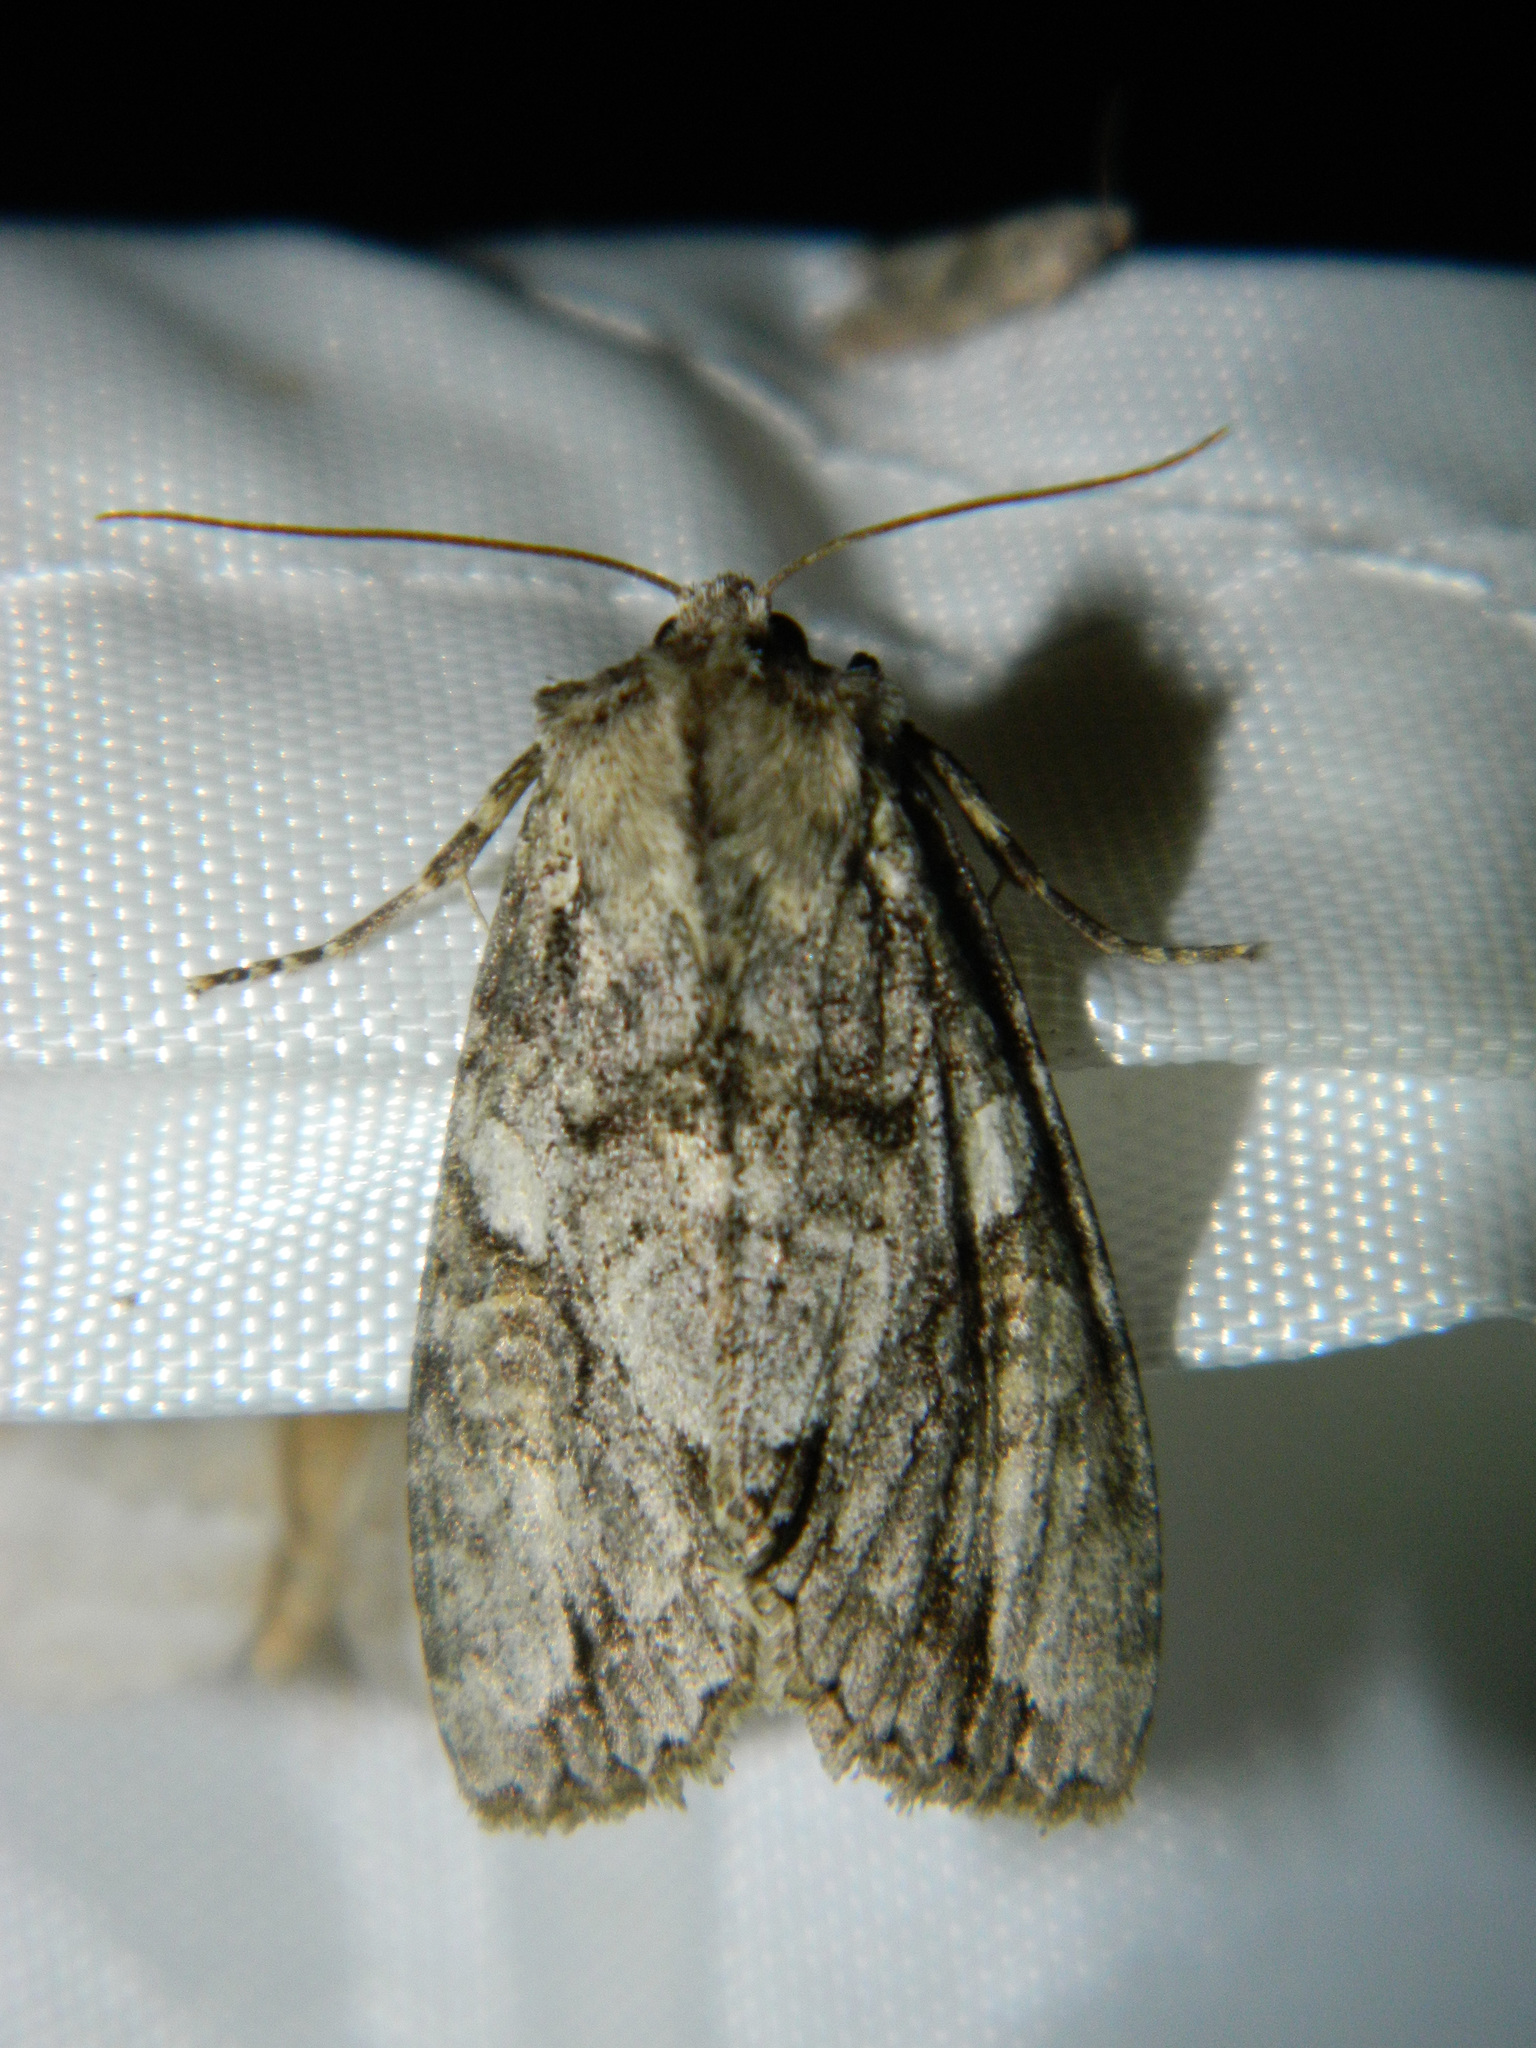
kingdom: Animalia
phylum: Arthropoda
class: Insecta
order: Lepidoptera
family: Noctuidae
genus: Achatia
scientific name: Achatia latex
